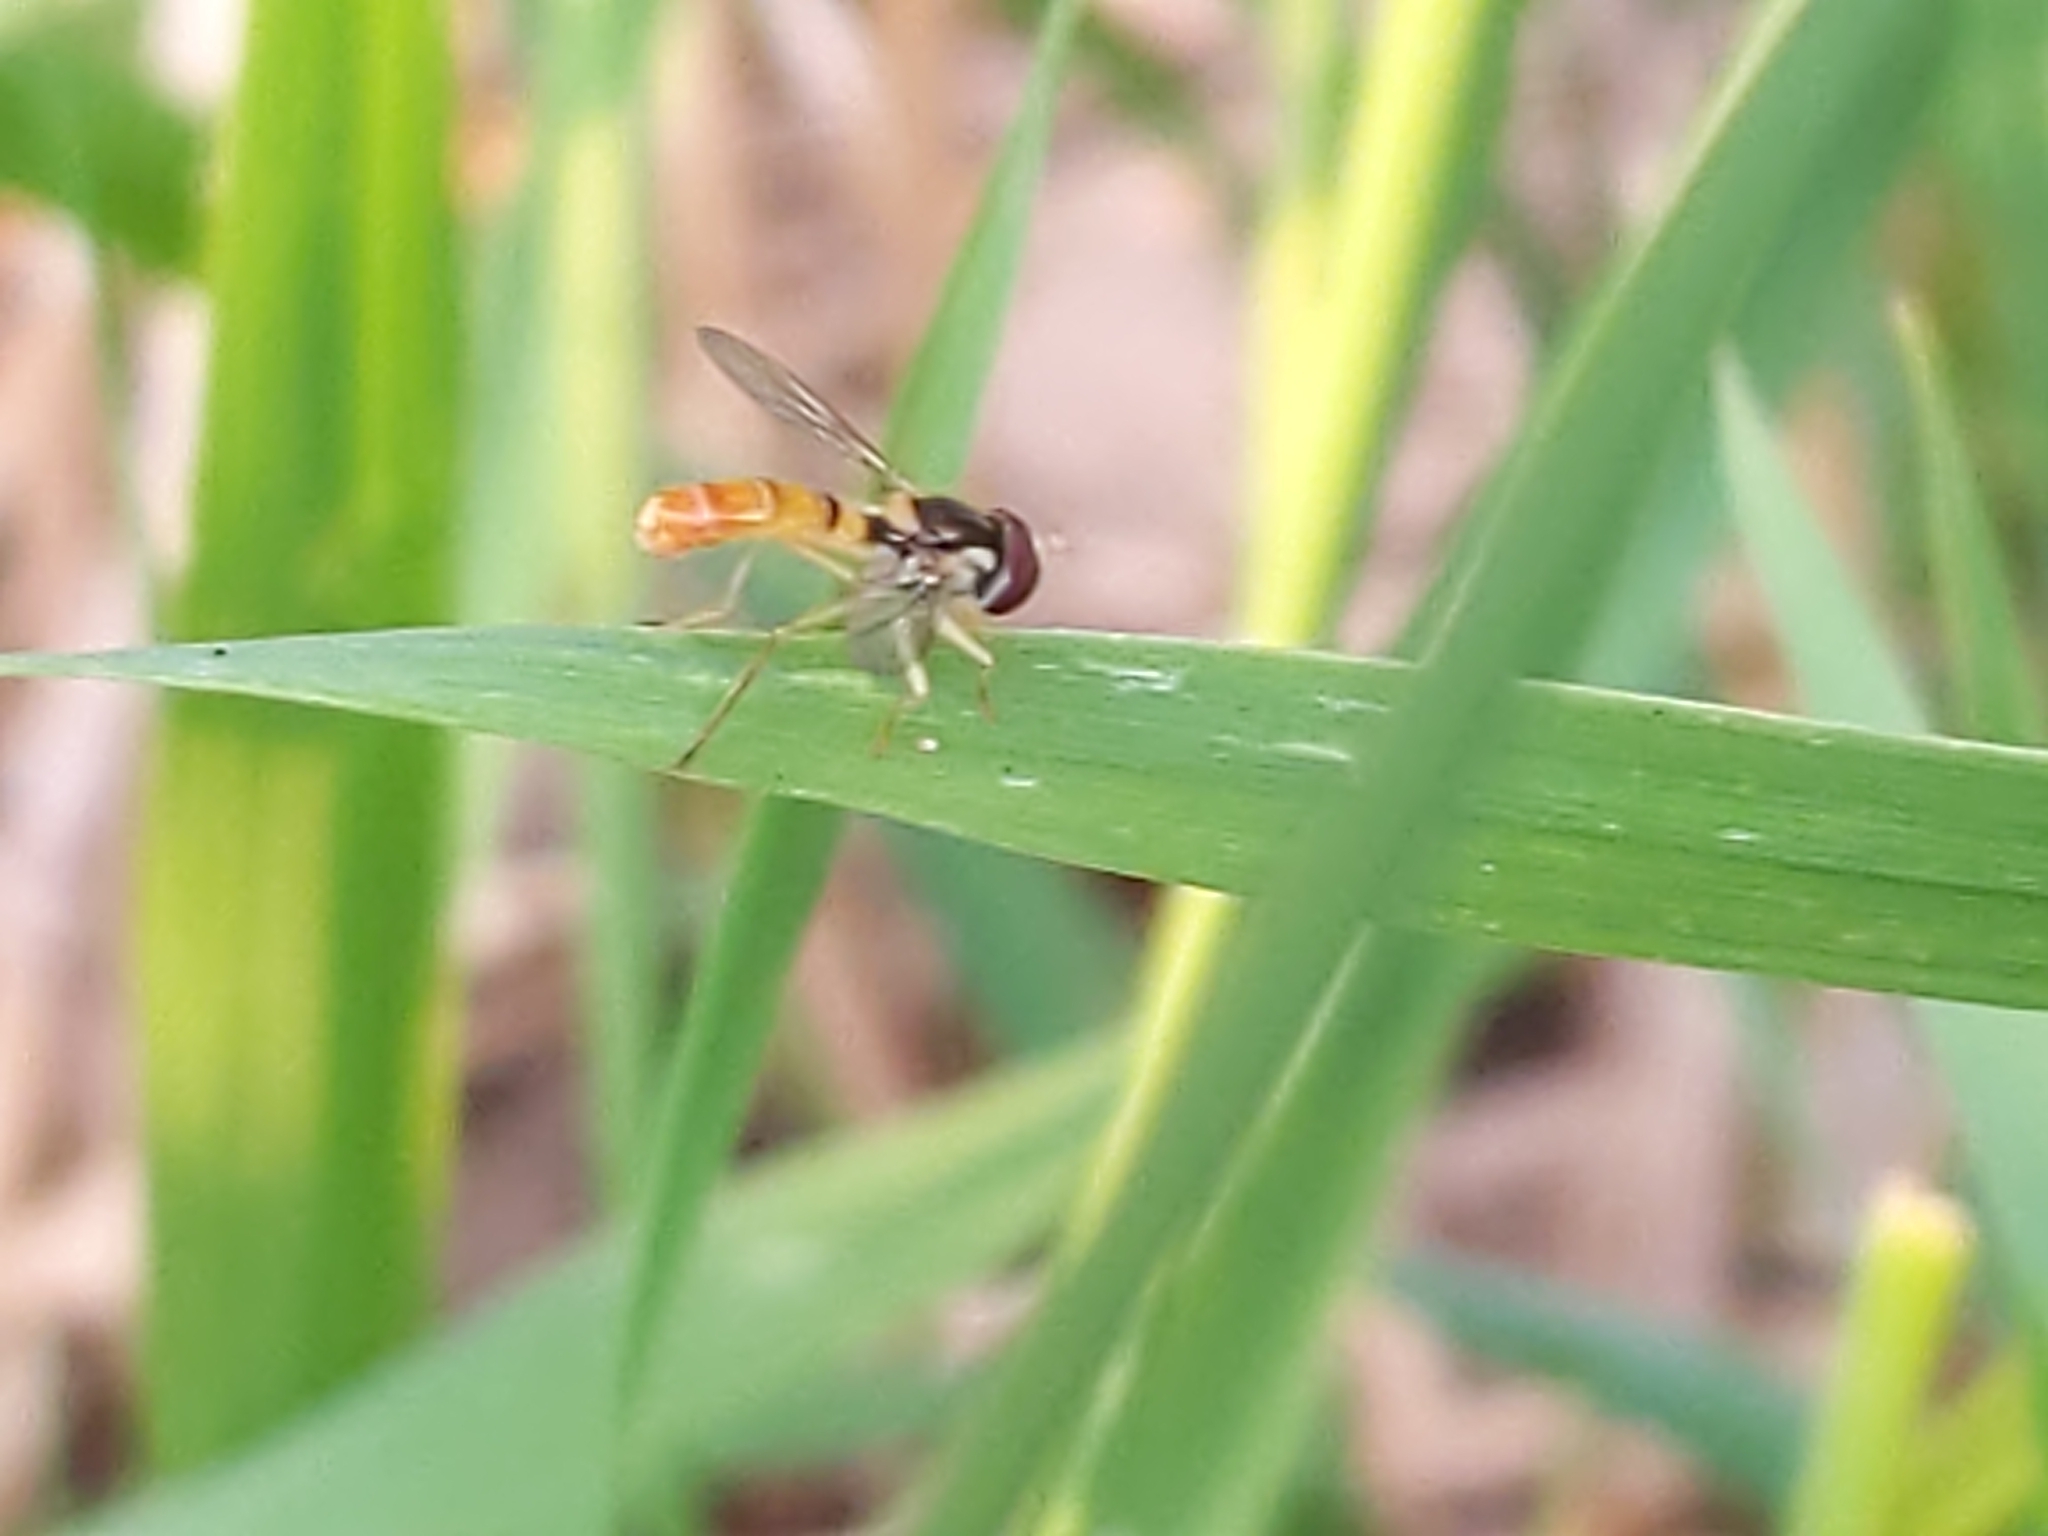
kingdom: Animalia
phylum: Arthropoda
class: Insecta
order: Diptera
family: Syrphidae
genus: Sphaerophoria
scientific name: Sphaerophoria contigua
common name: Tufted globetail
